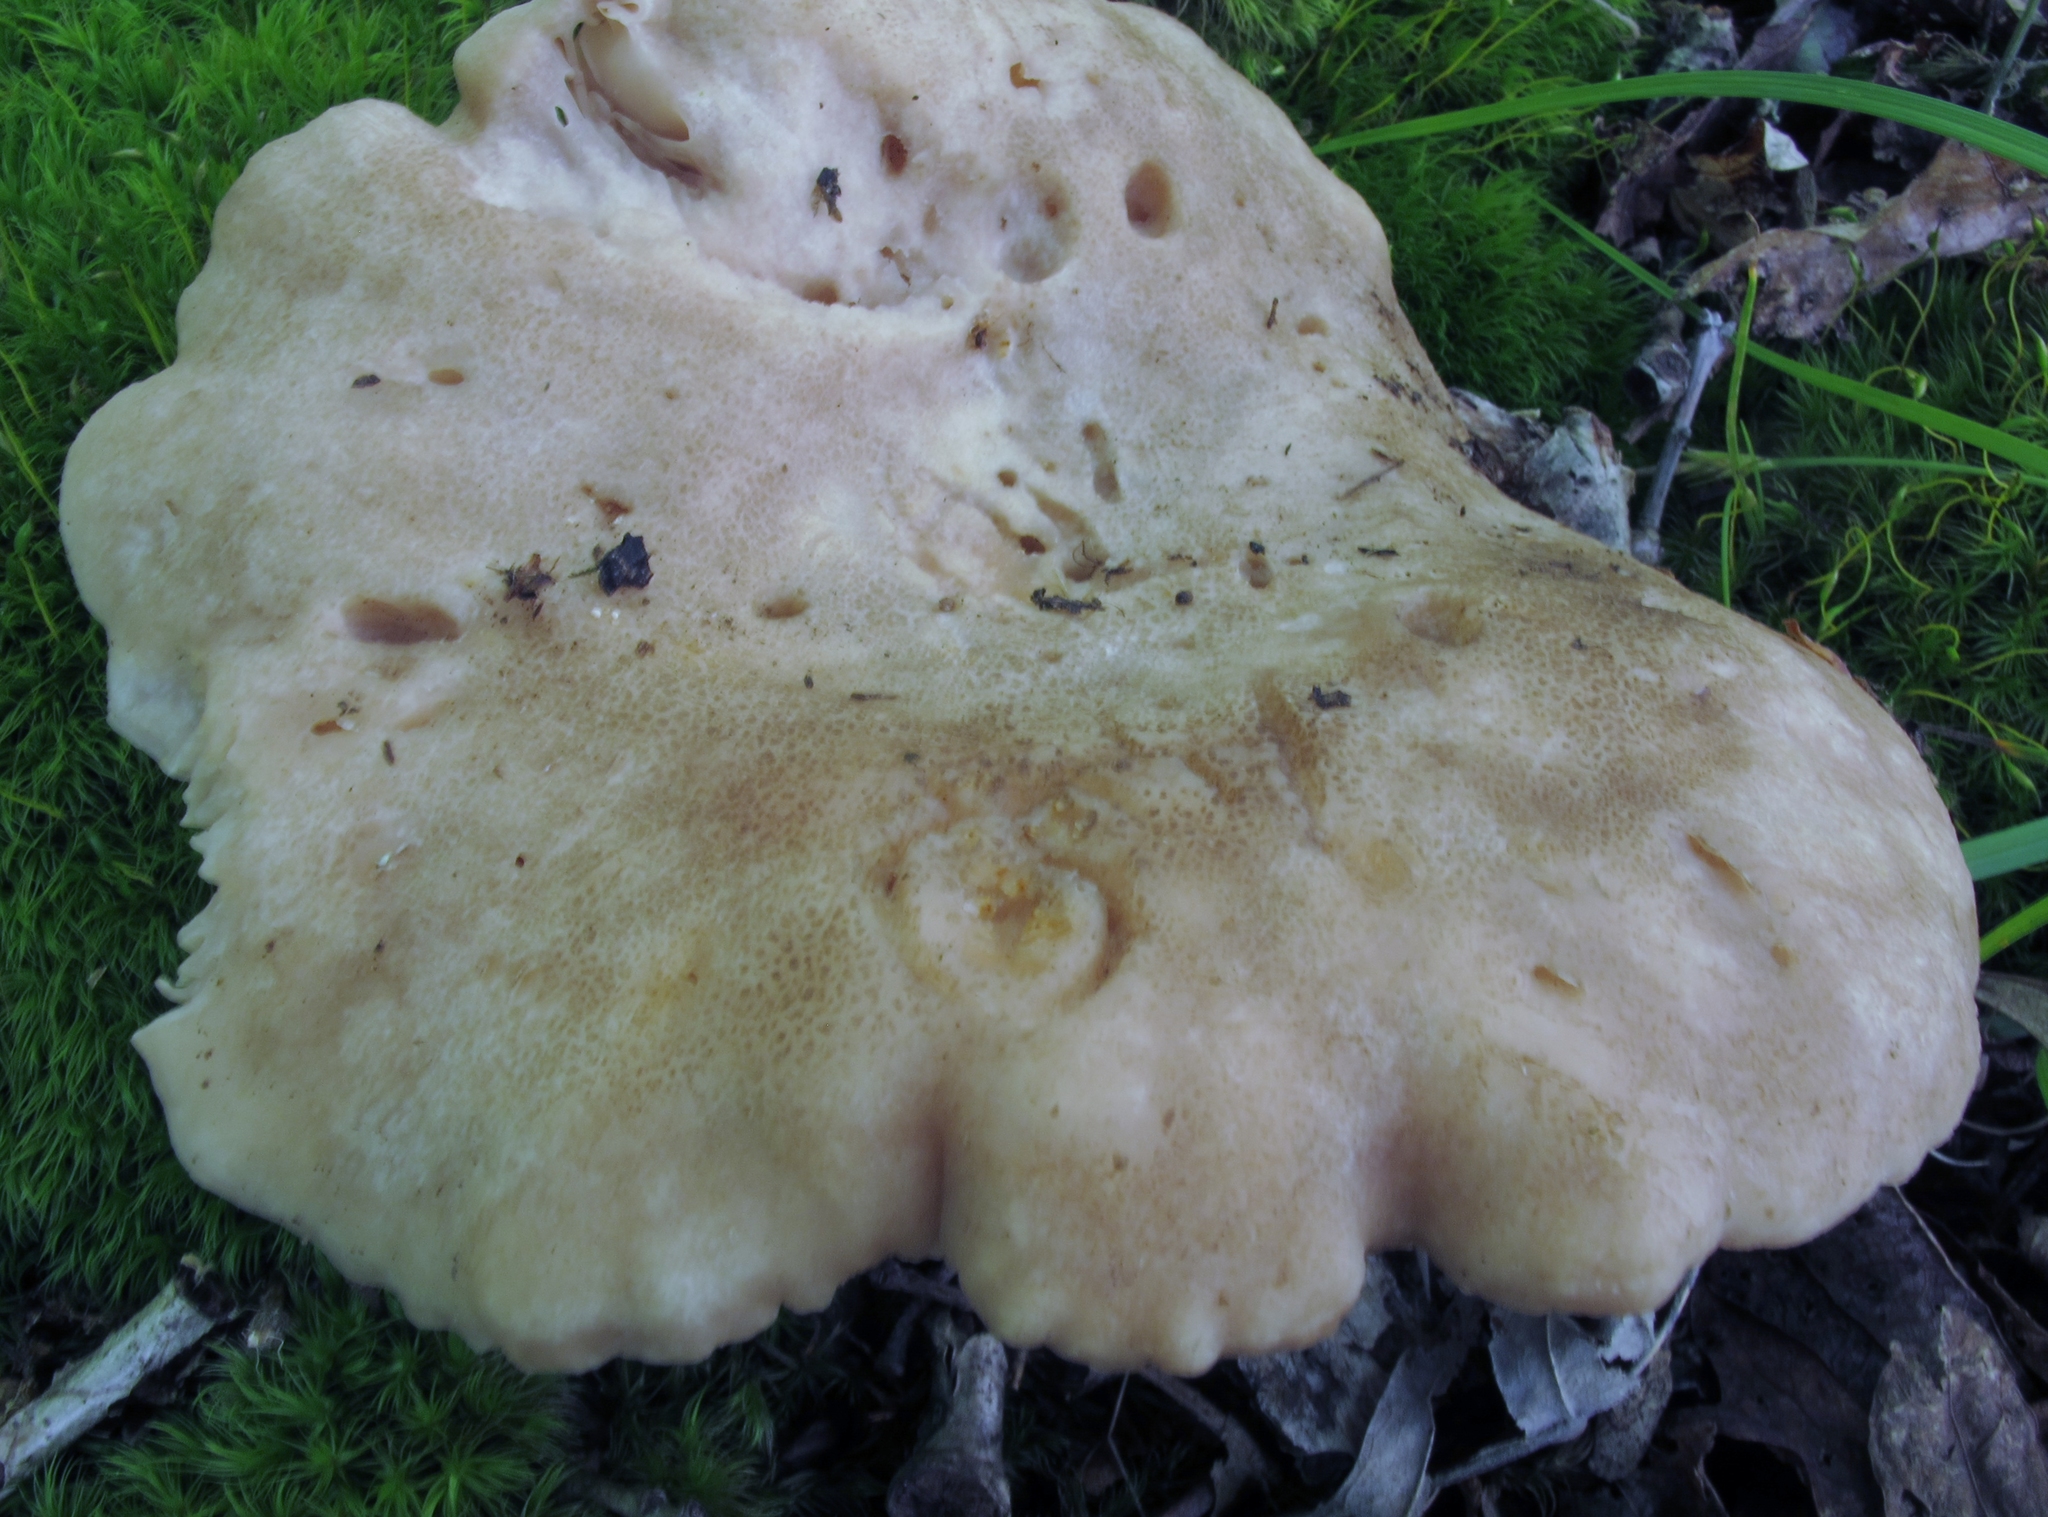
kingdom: Fungi
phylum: Basidiomycota
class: Agaricomycetes
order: Russulales
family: Russulaceae
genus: Russula
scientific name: Russula adusta
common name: Winecork brittlegill
